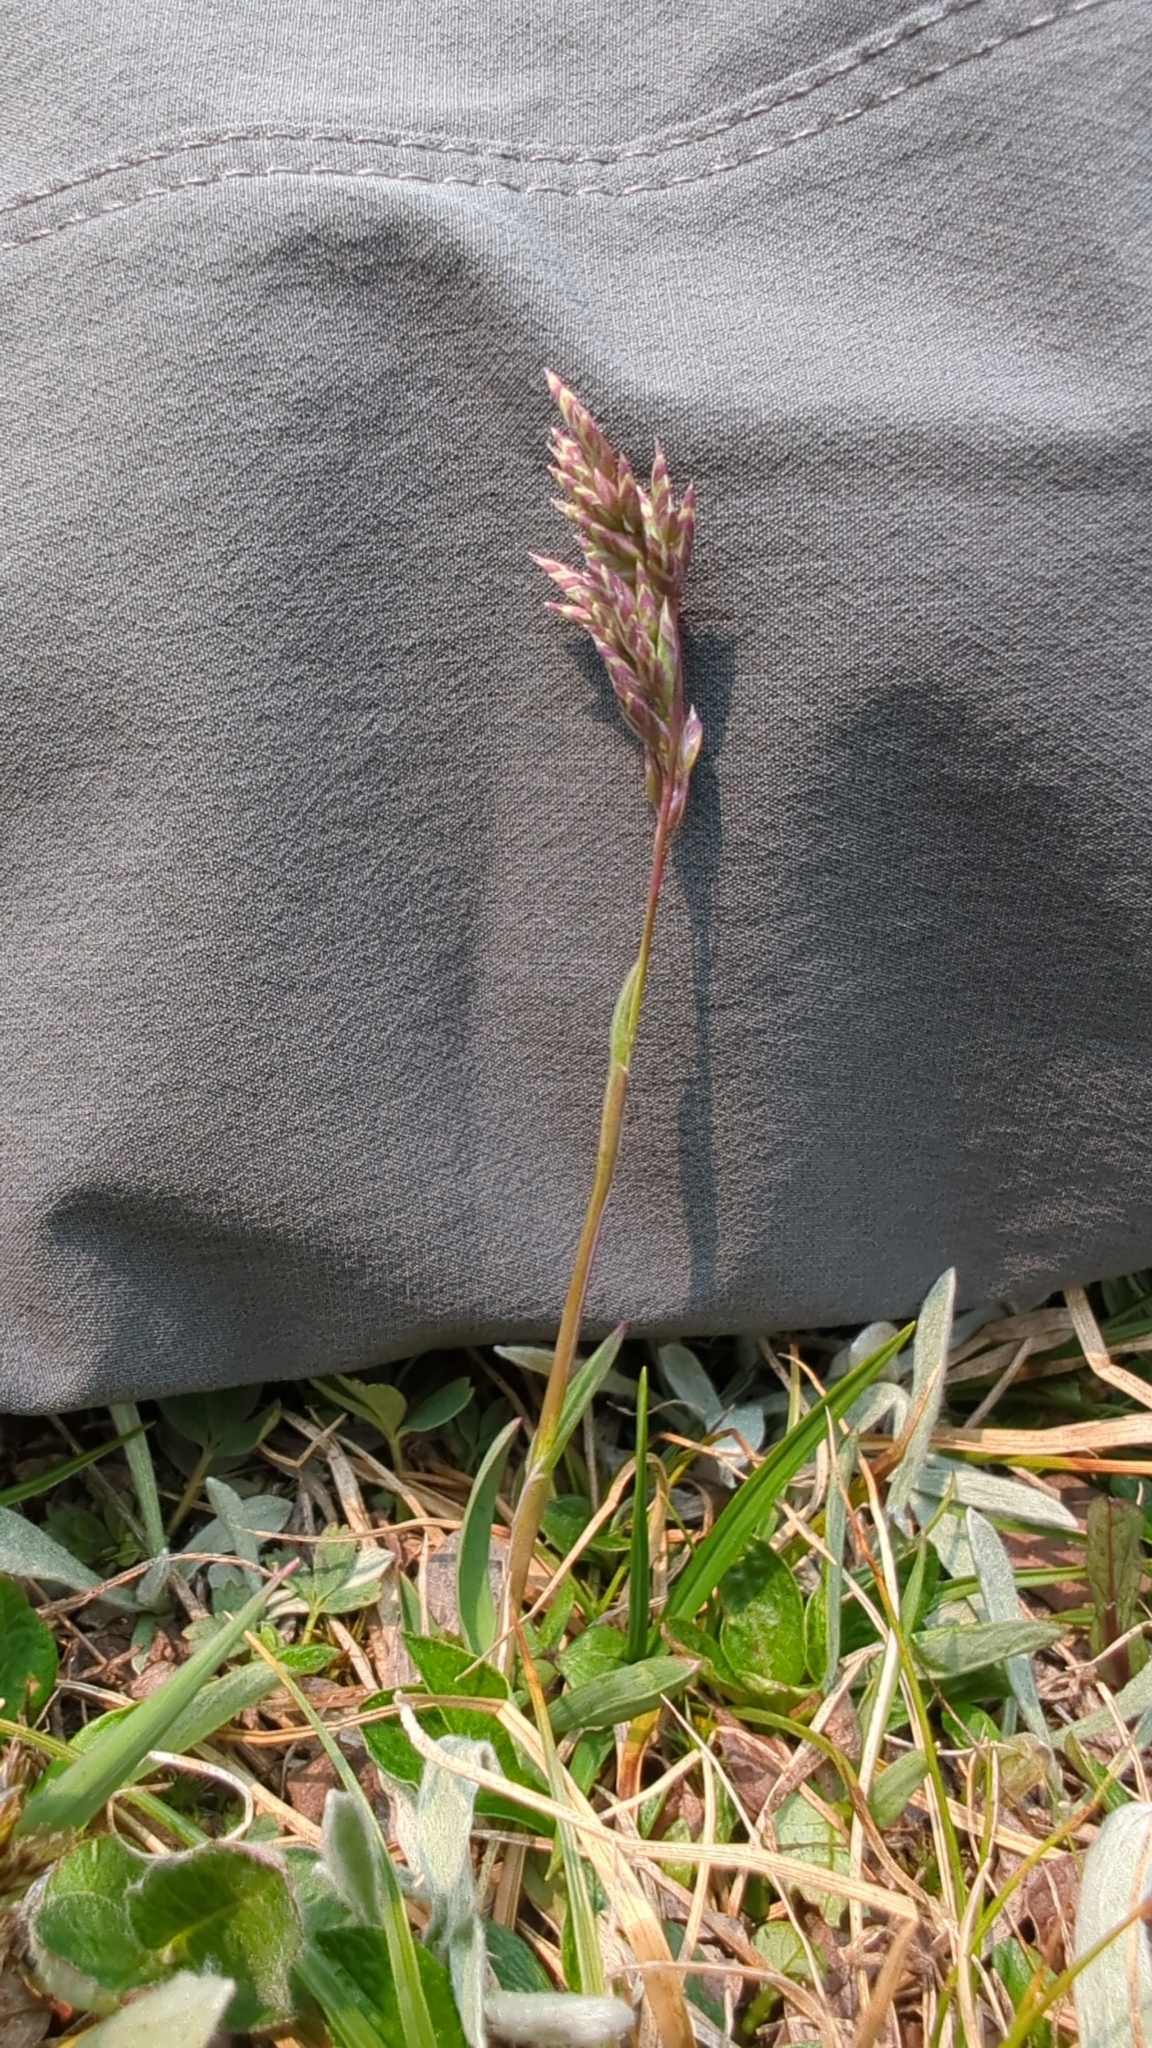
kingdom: Plantae
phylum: Tracheophyta
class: Liliopsida
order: Poales
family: Poaceae
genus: Poa
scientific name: Poa alpina
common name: Alpine bluegrass
